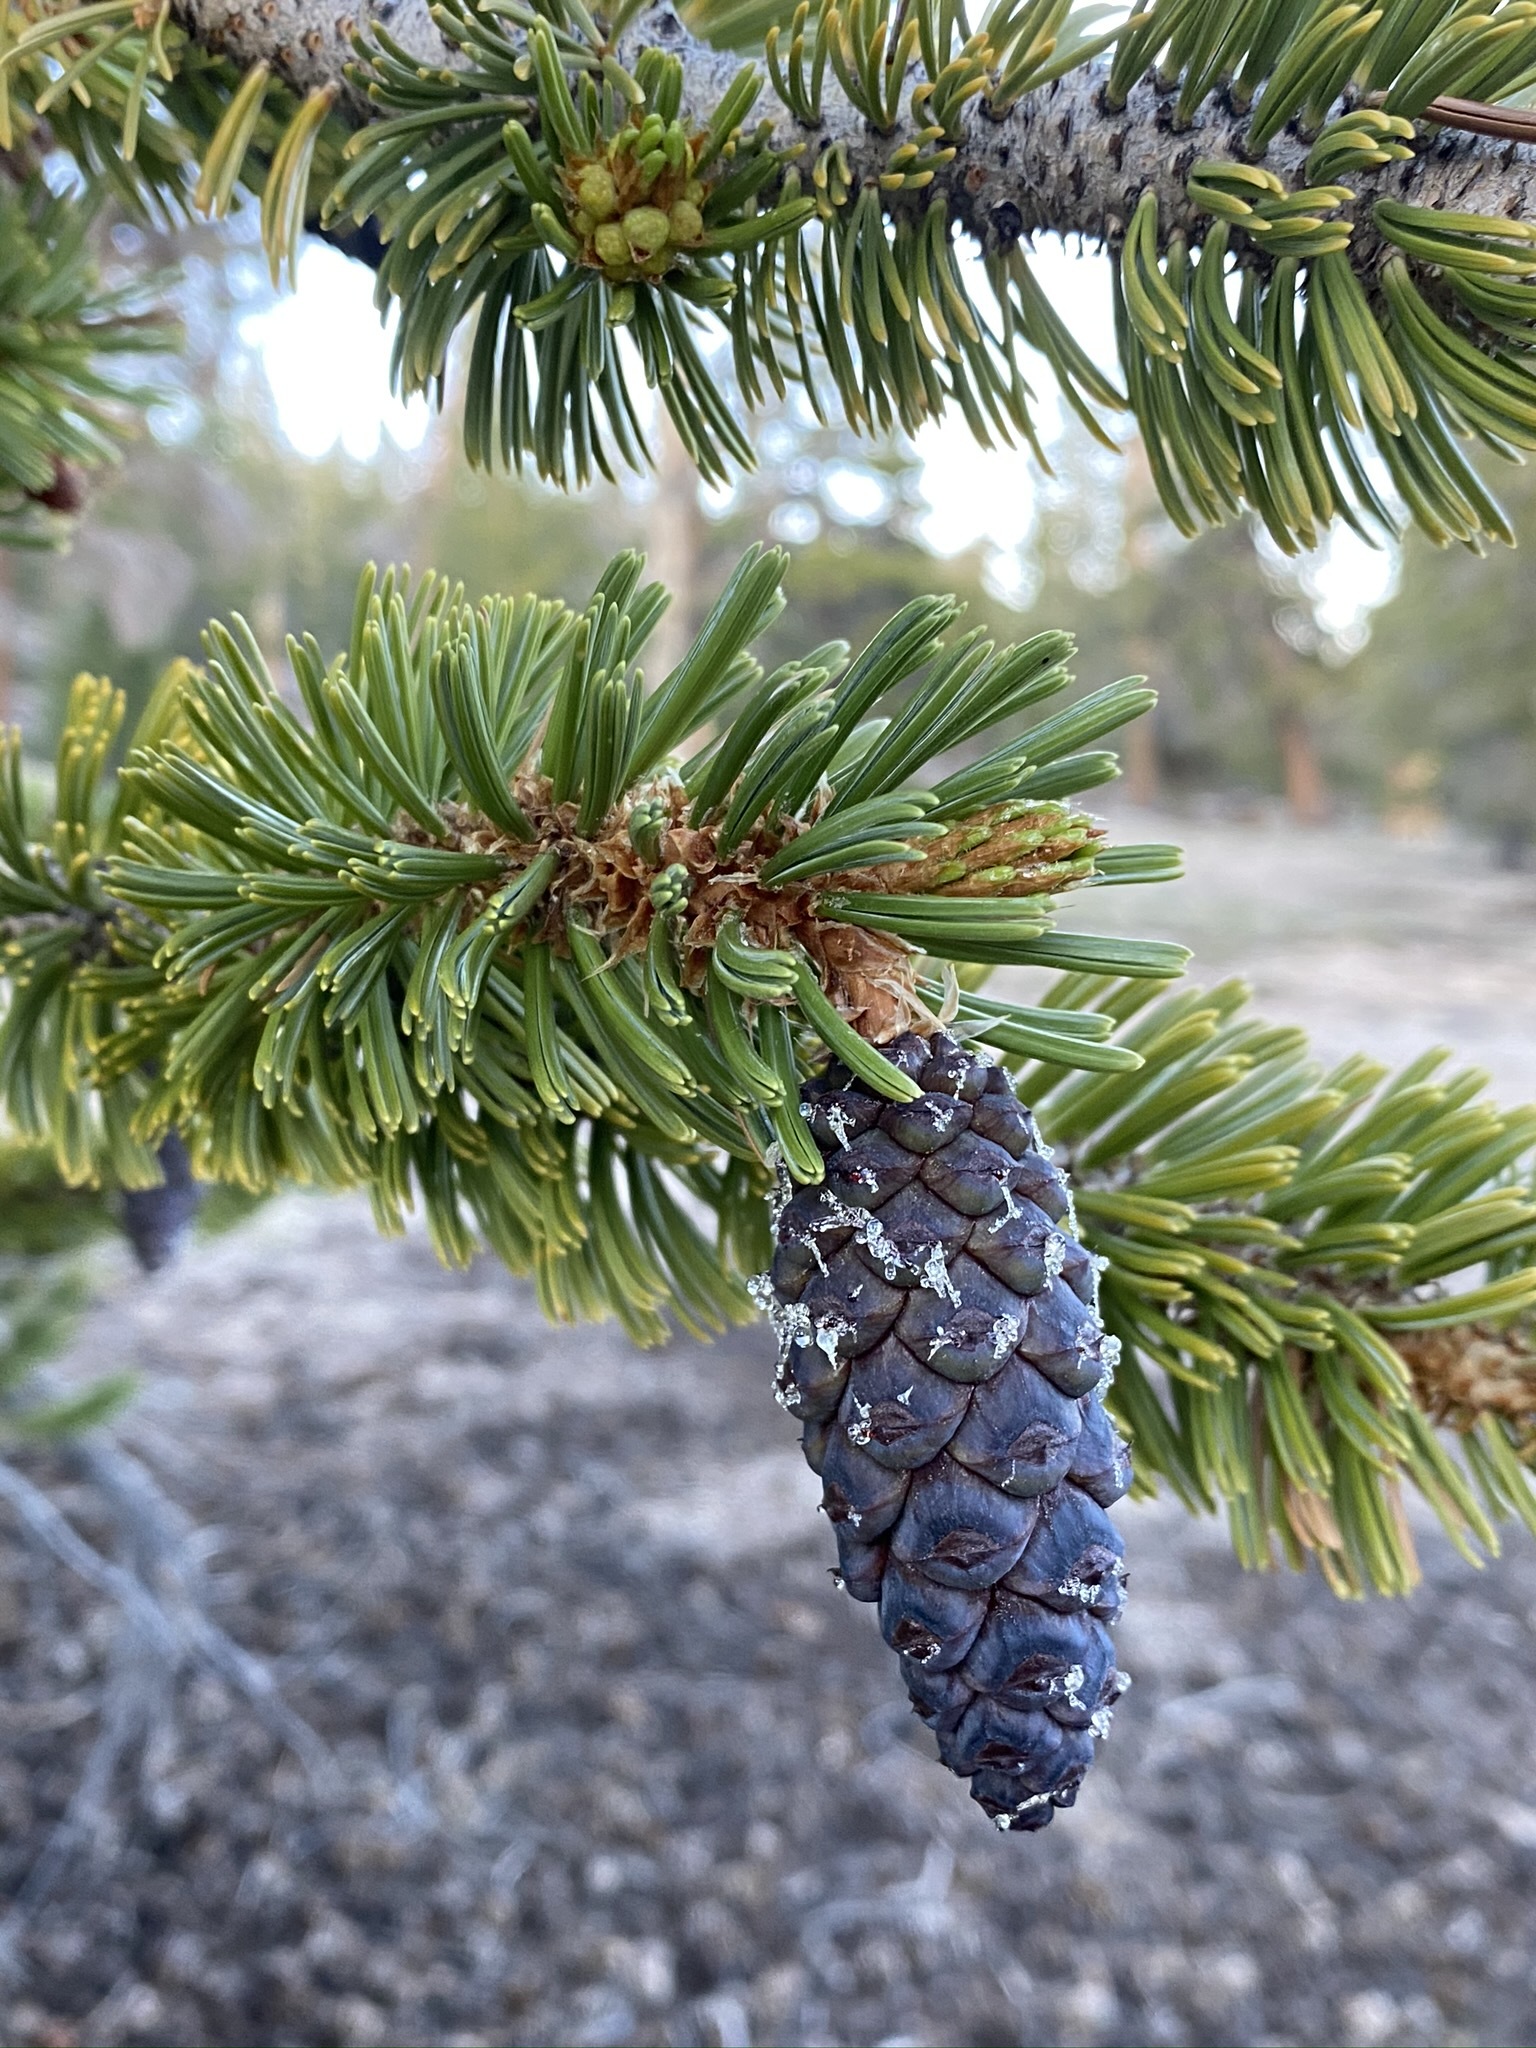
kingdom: Plantae
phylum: Tracheophyta
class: Pinopsida
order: Pinales
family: Pinaceae
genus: Pinus
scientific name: Pinus balfouriana
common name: Foxtail pine
